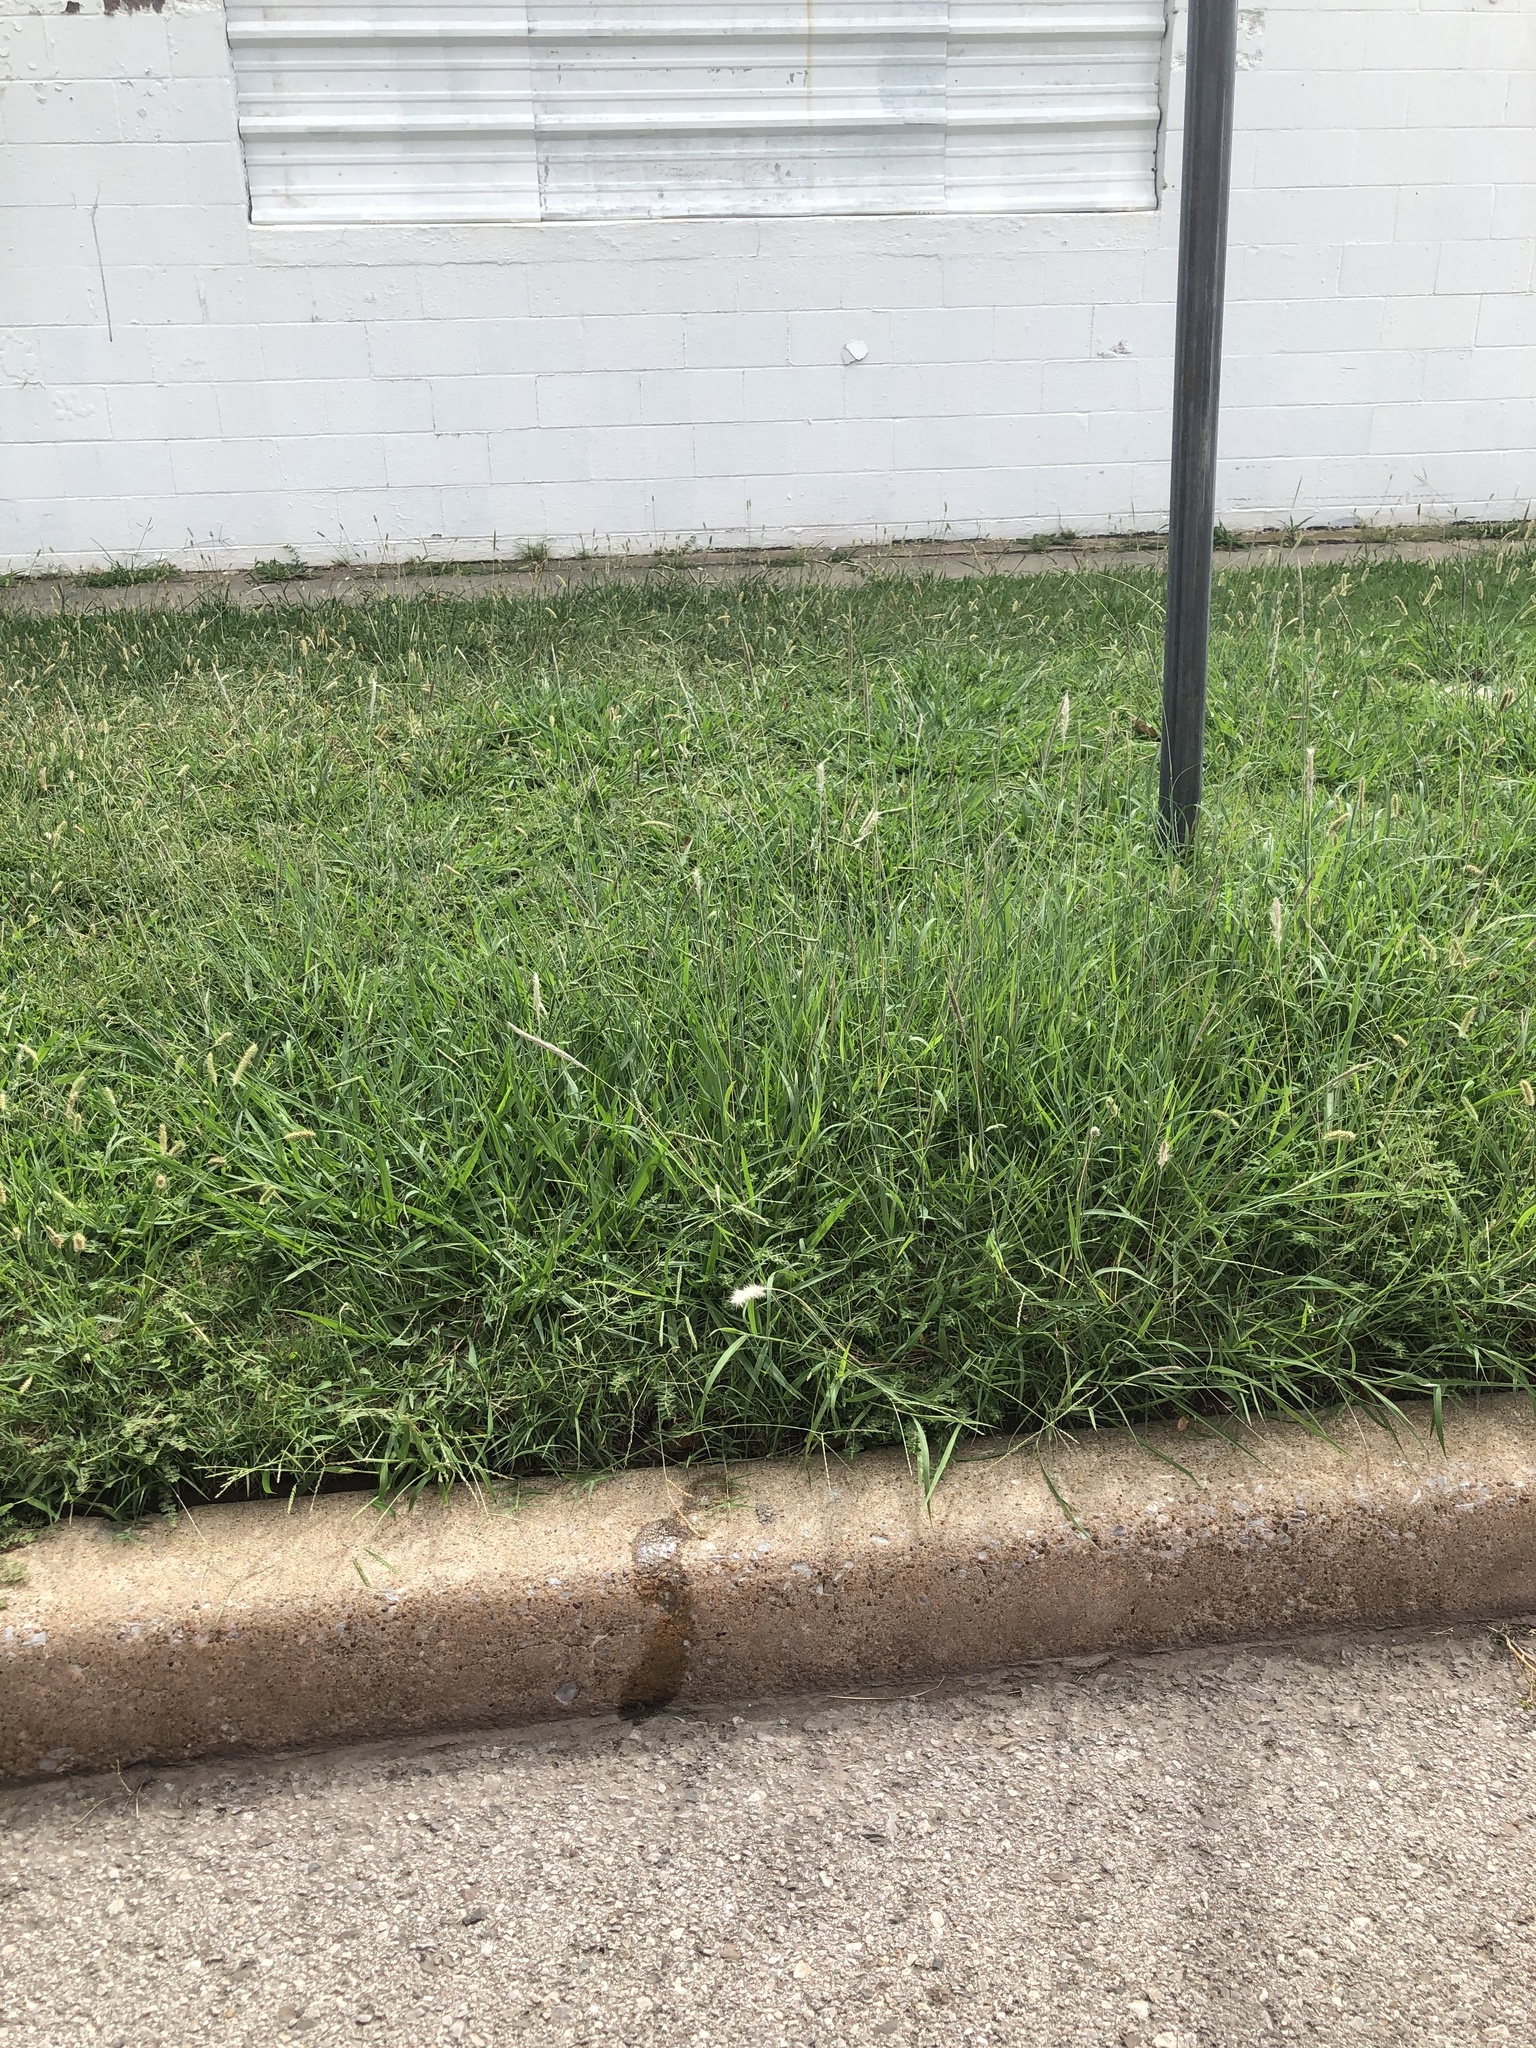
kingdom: Plantae
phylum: Tracheophyta
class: Liliopsida
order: Poales
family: Poaceae
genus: Bothriochloa
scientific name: Bothriochloa torreyana
